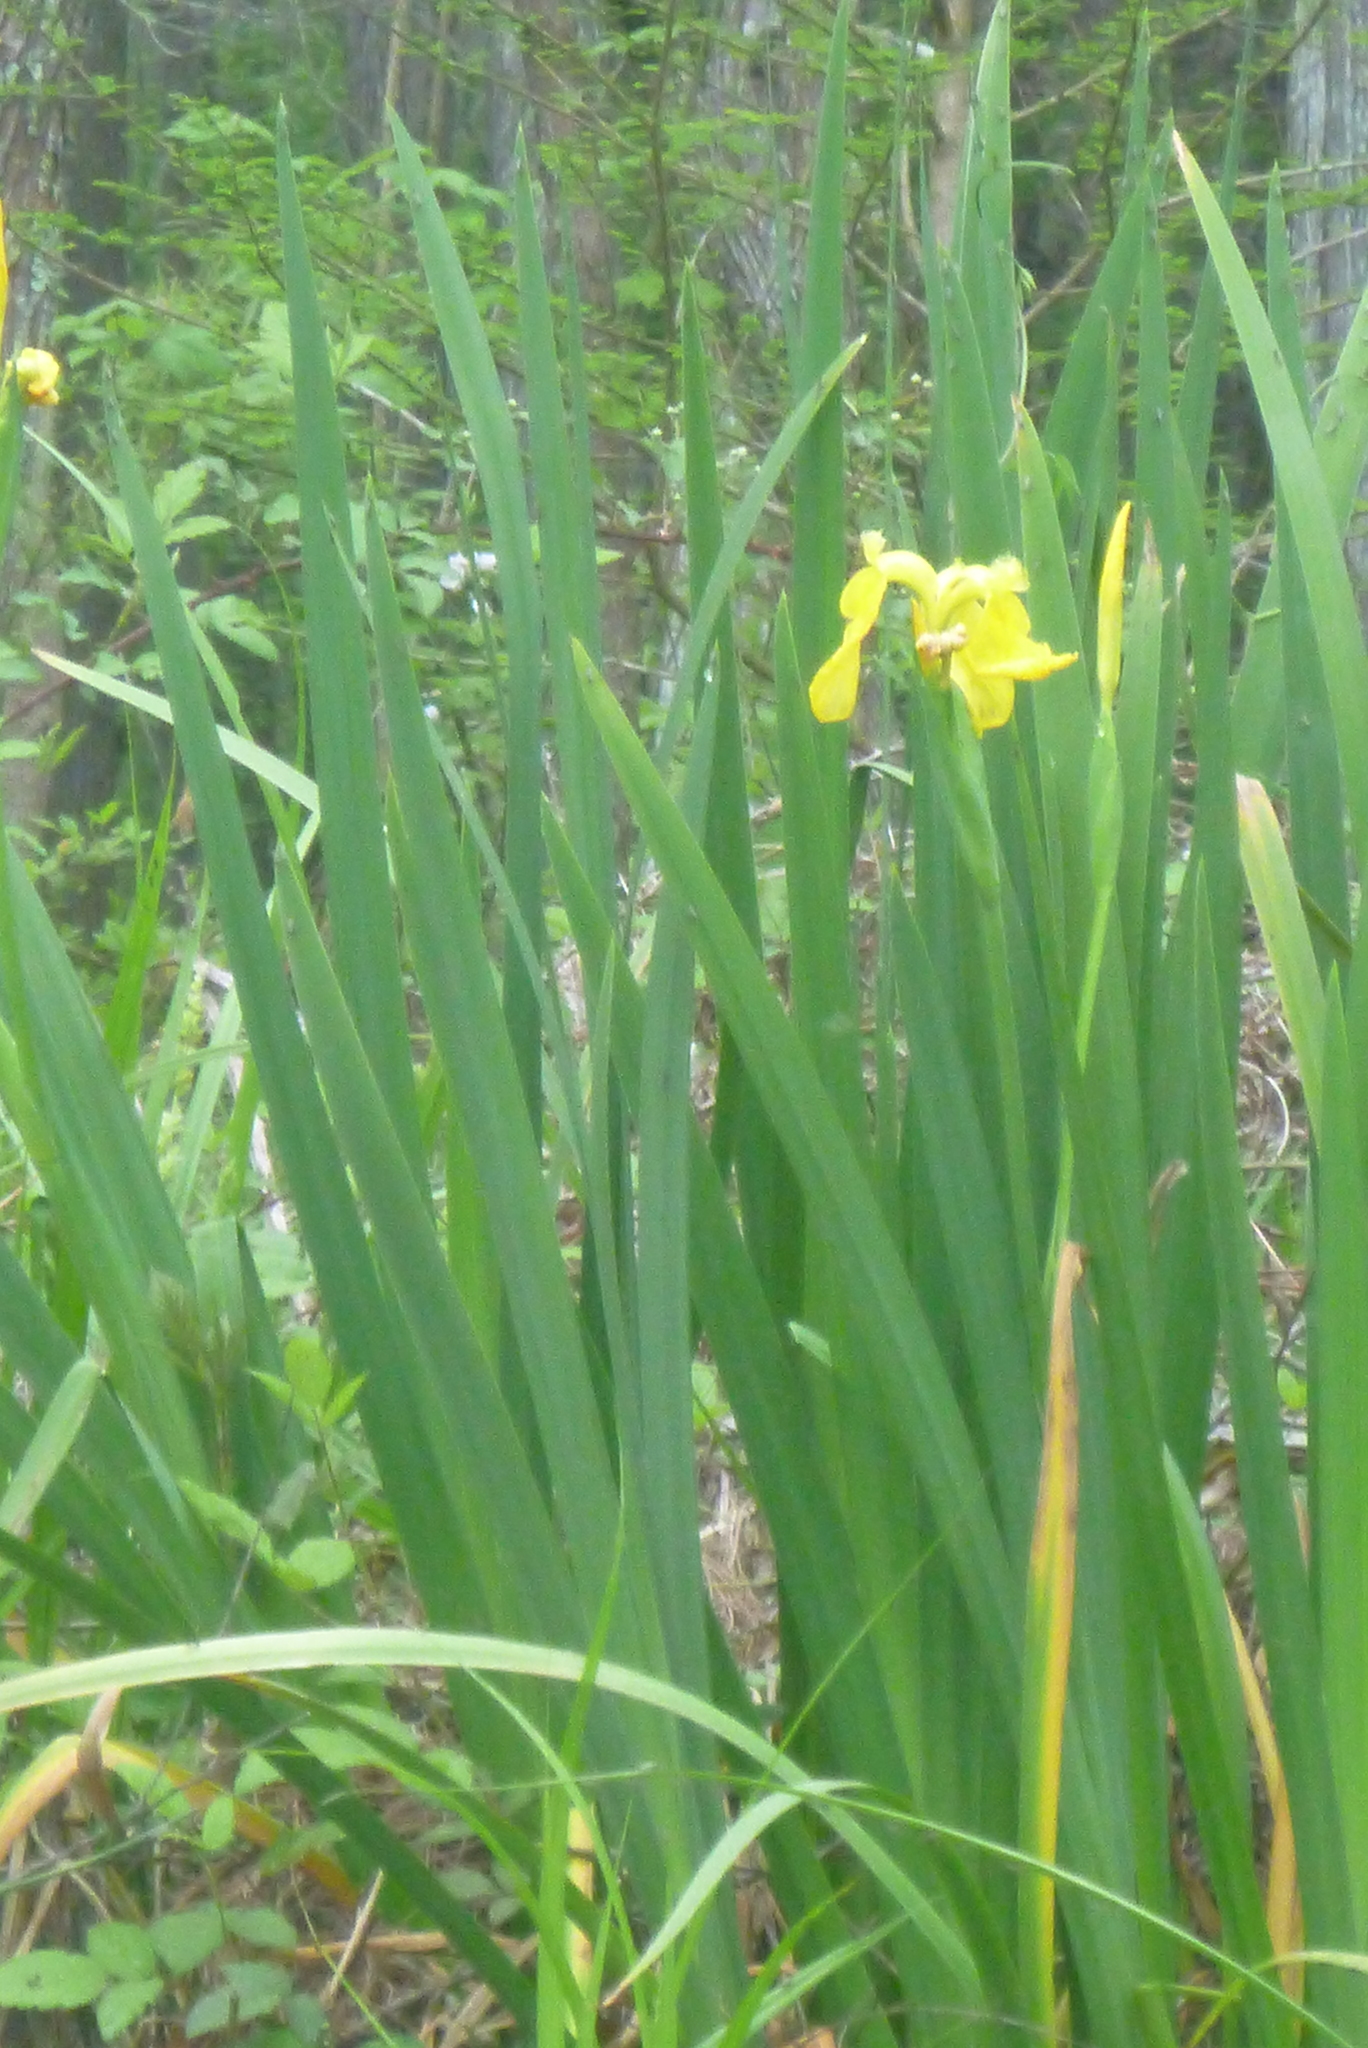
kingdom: Plantae
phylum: Tracheophyta
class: Liliopsida
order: Asparagales
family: Iridaceae
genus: Iris
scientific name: Iris pseudacorus
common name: Yellow flag
